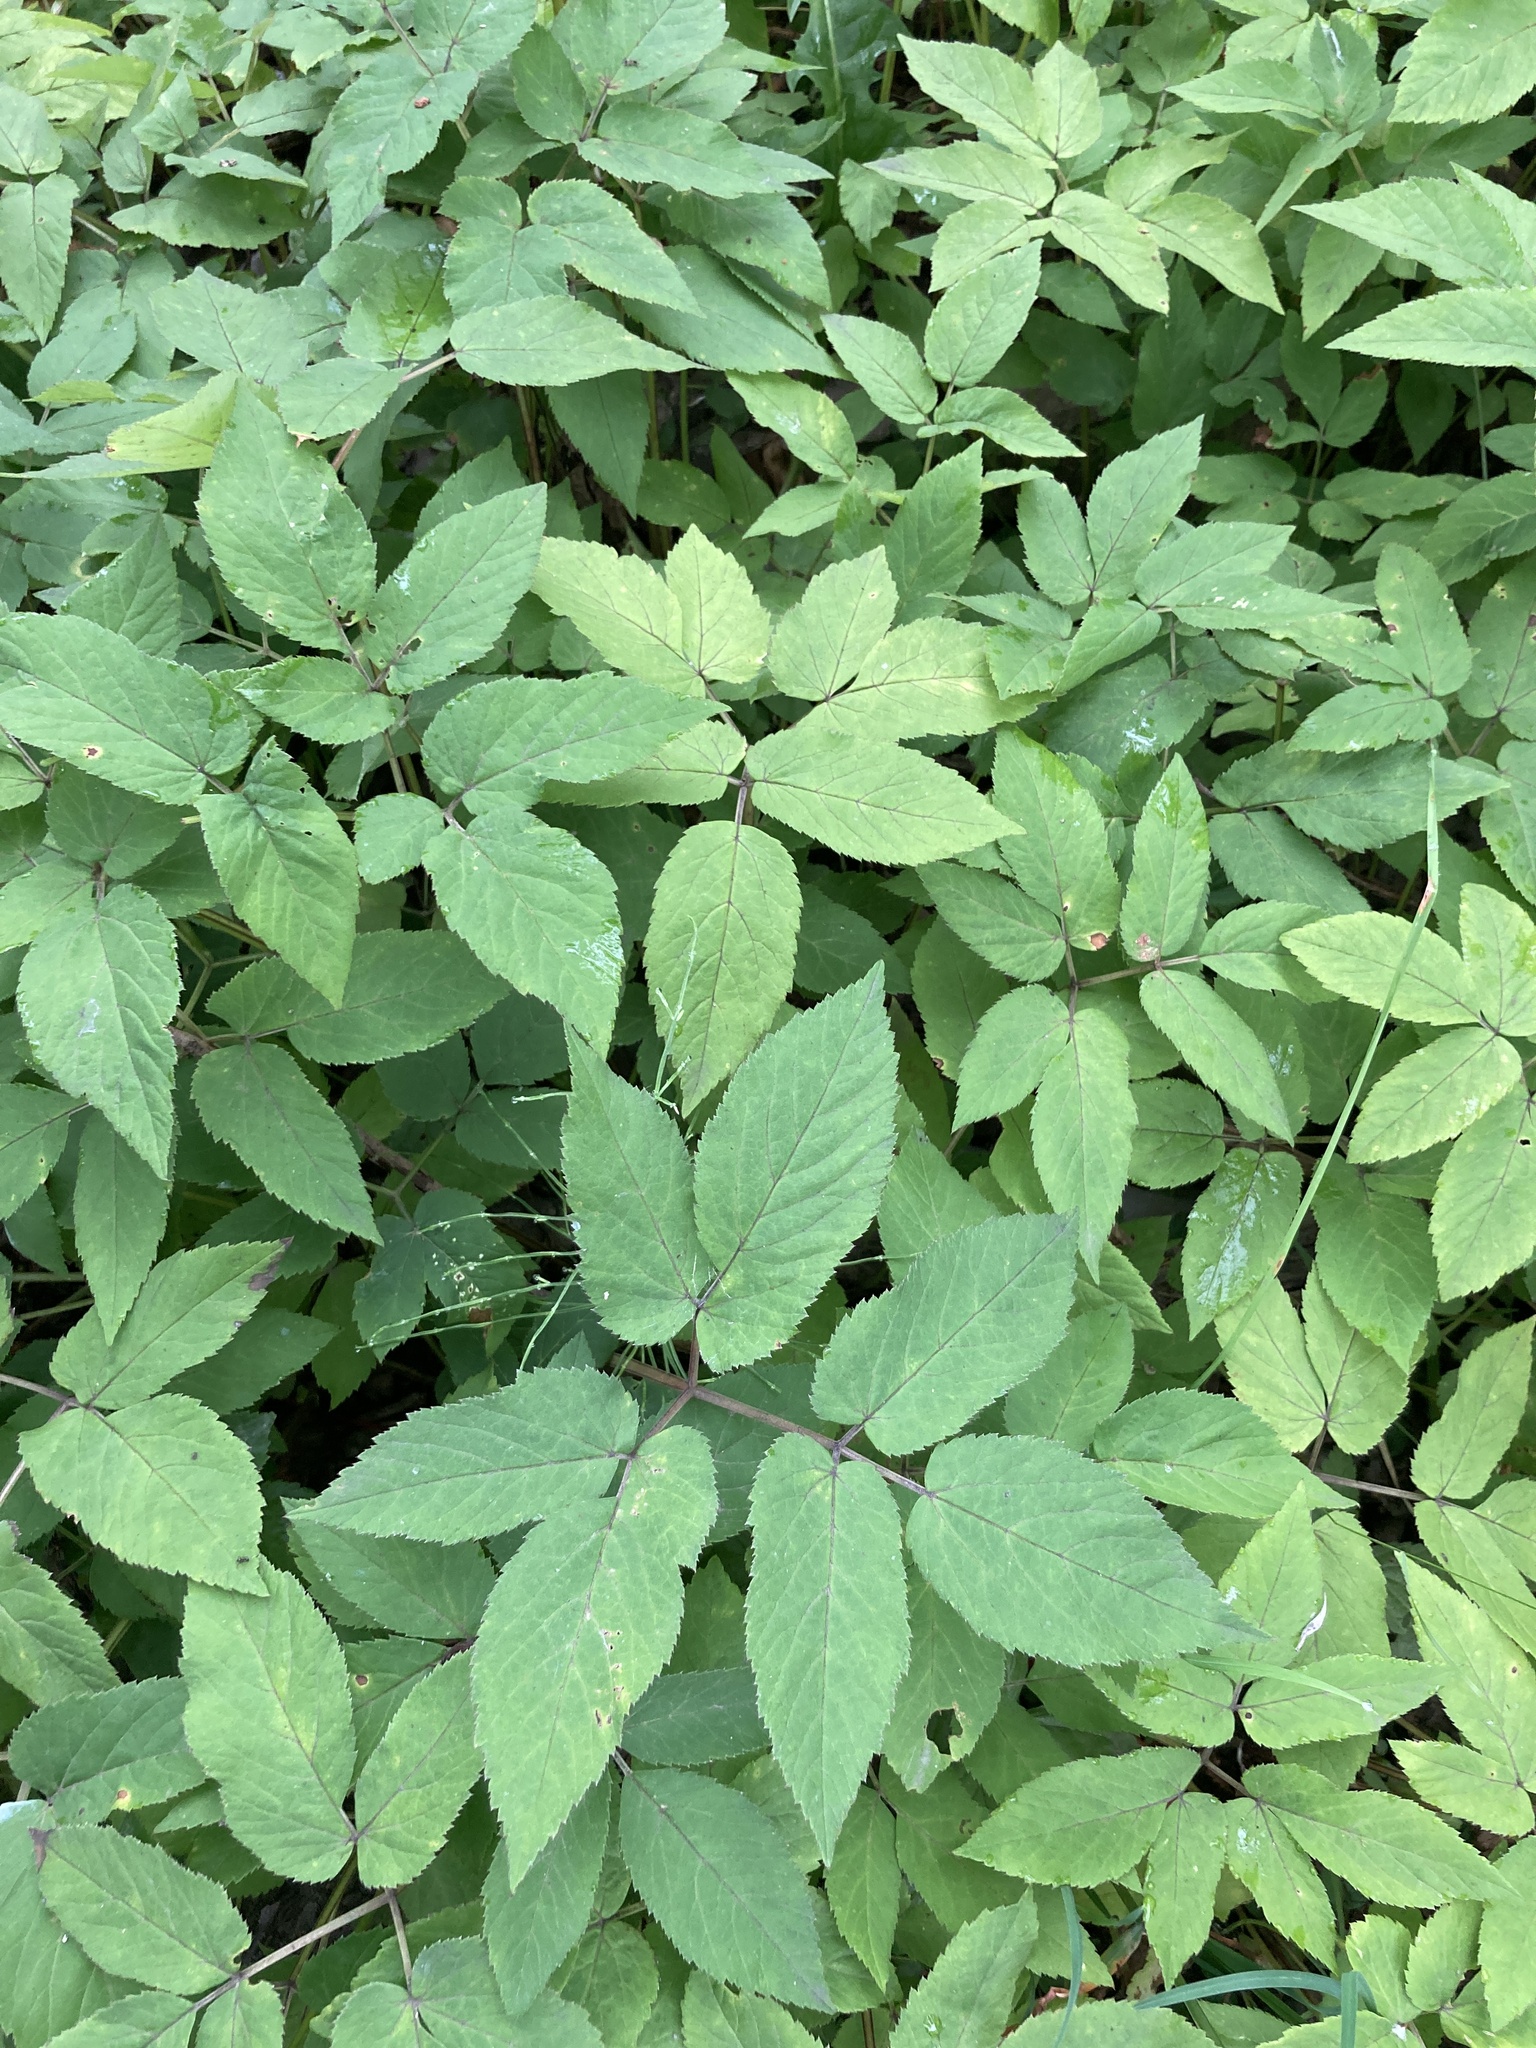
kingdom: Plantae
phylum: Tracheophyta
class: Magnoliopsida
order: Apiales
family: Apiaceae
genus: Aegopodium
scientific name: Aegopodium podagraria
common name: Ground-elder
